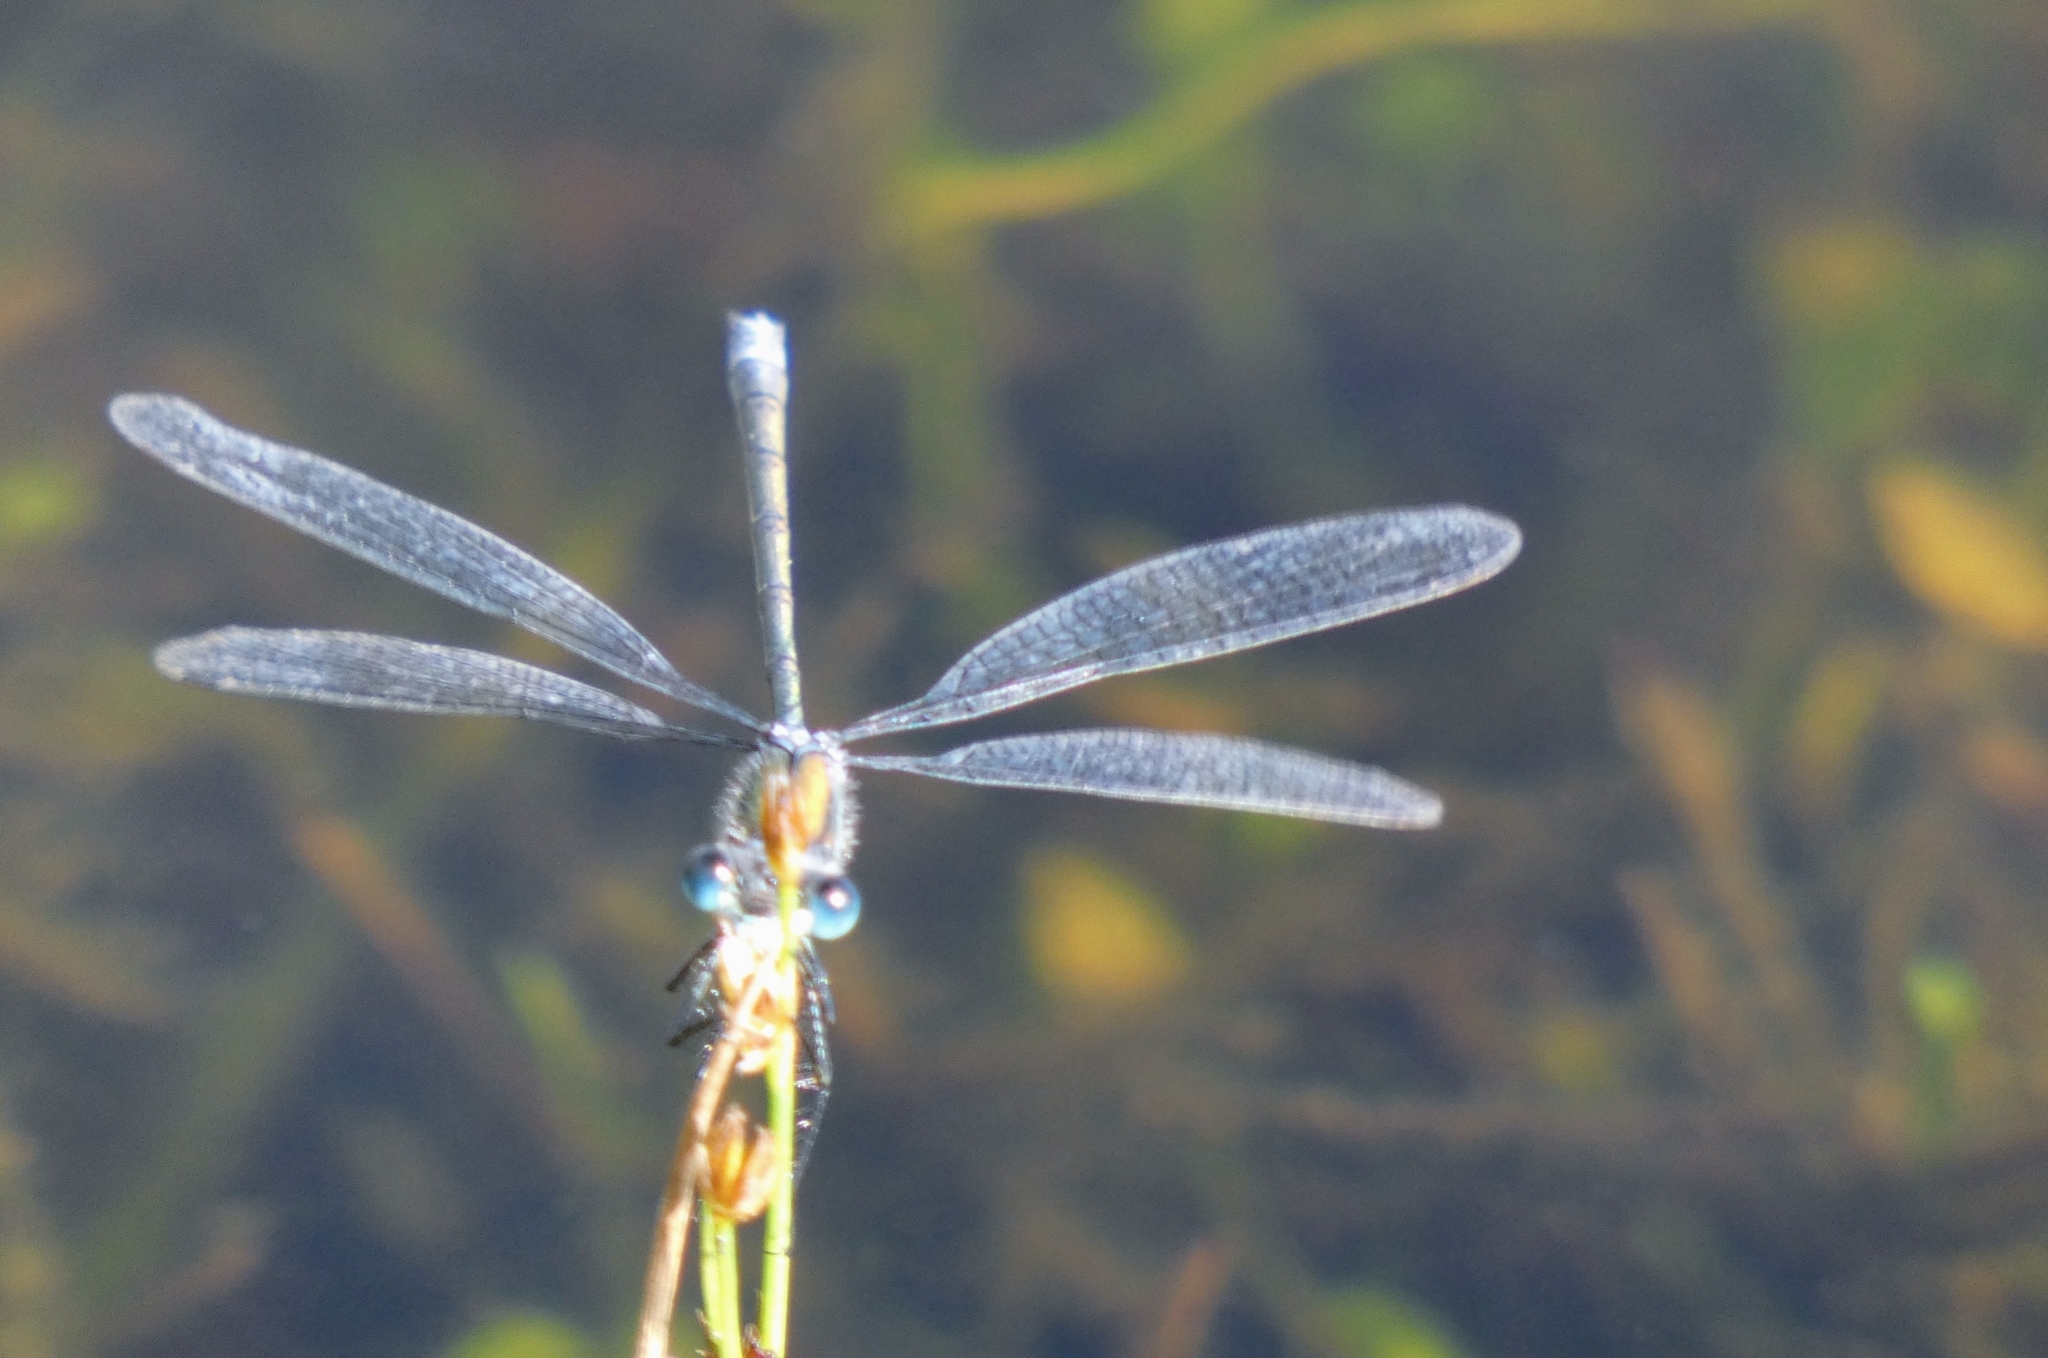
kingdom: Animalia
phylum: Arthropoda
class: Insecta
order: Odonata
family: Lestidae
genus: Lestes
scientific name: Lestes sponsa
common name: Common spreadwing
